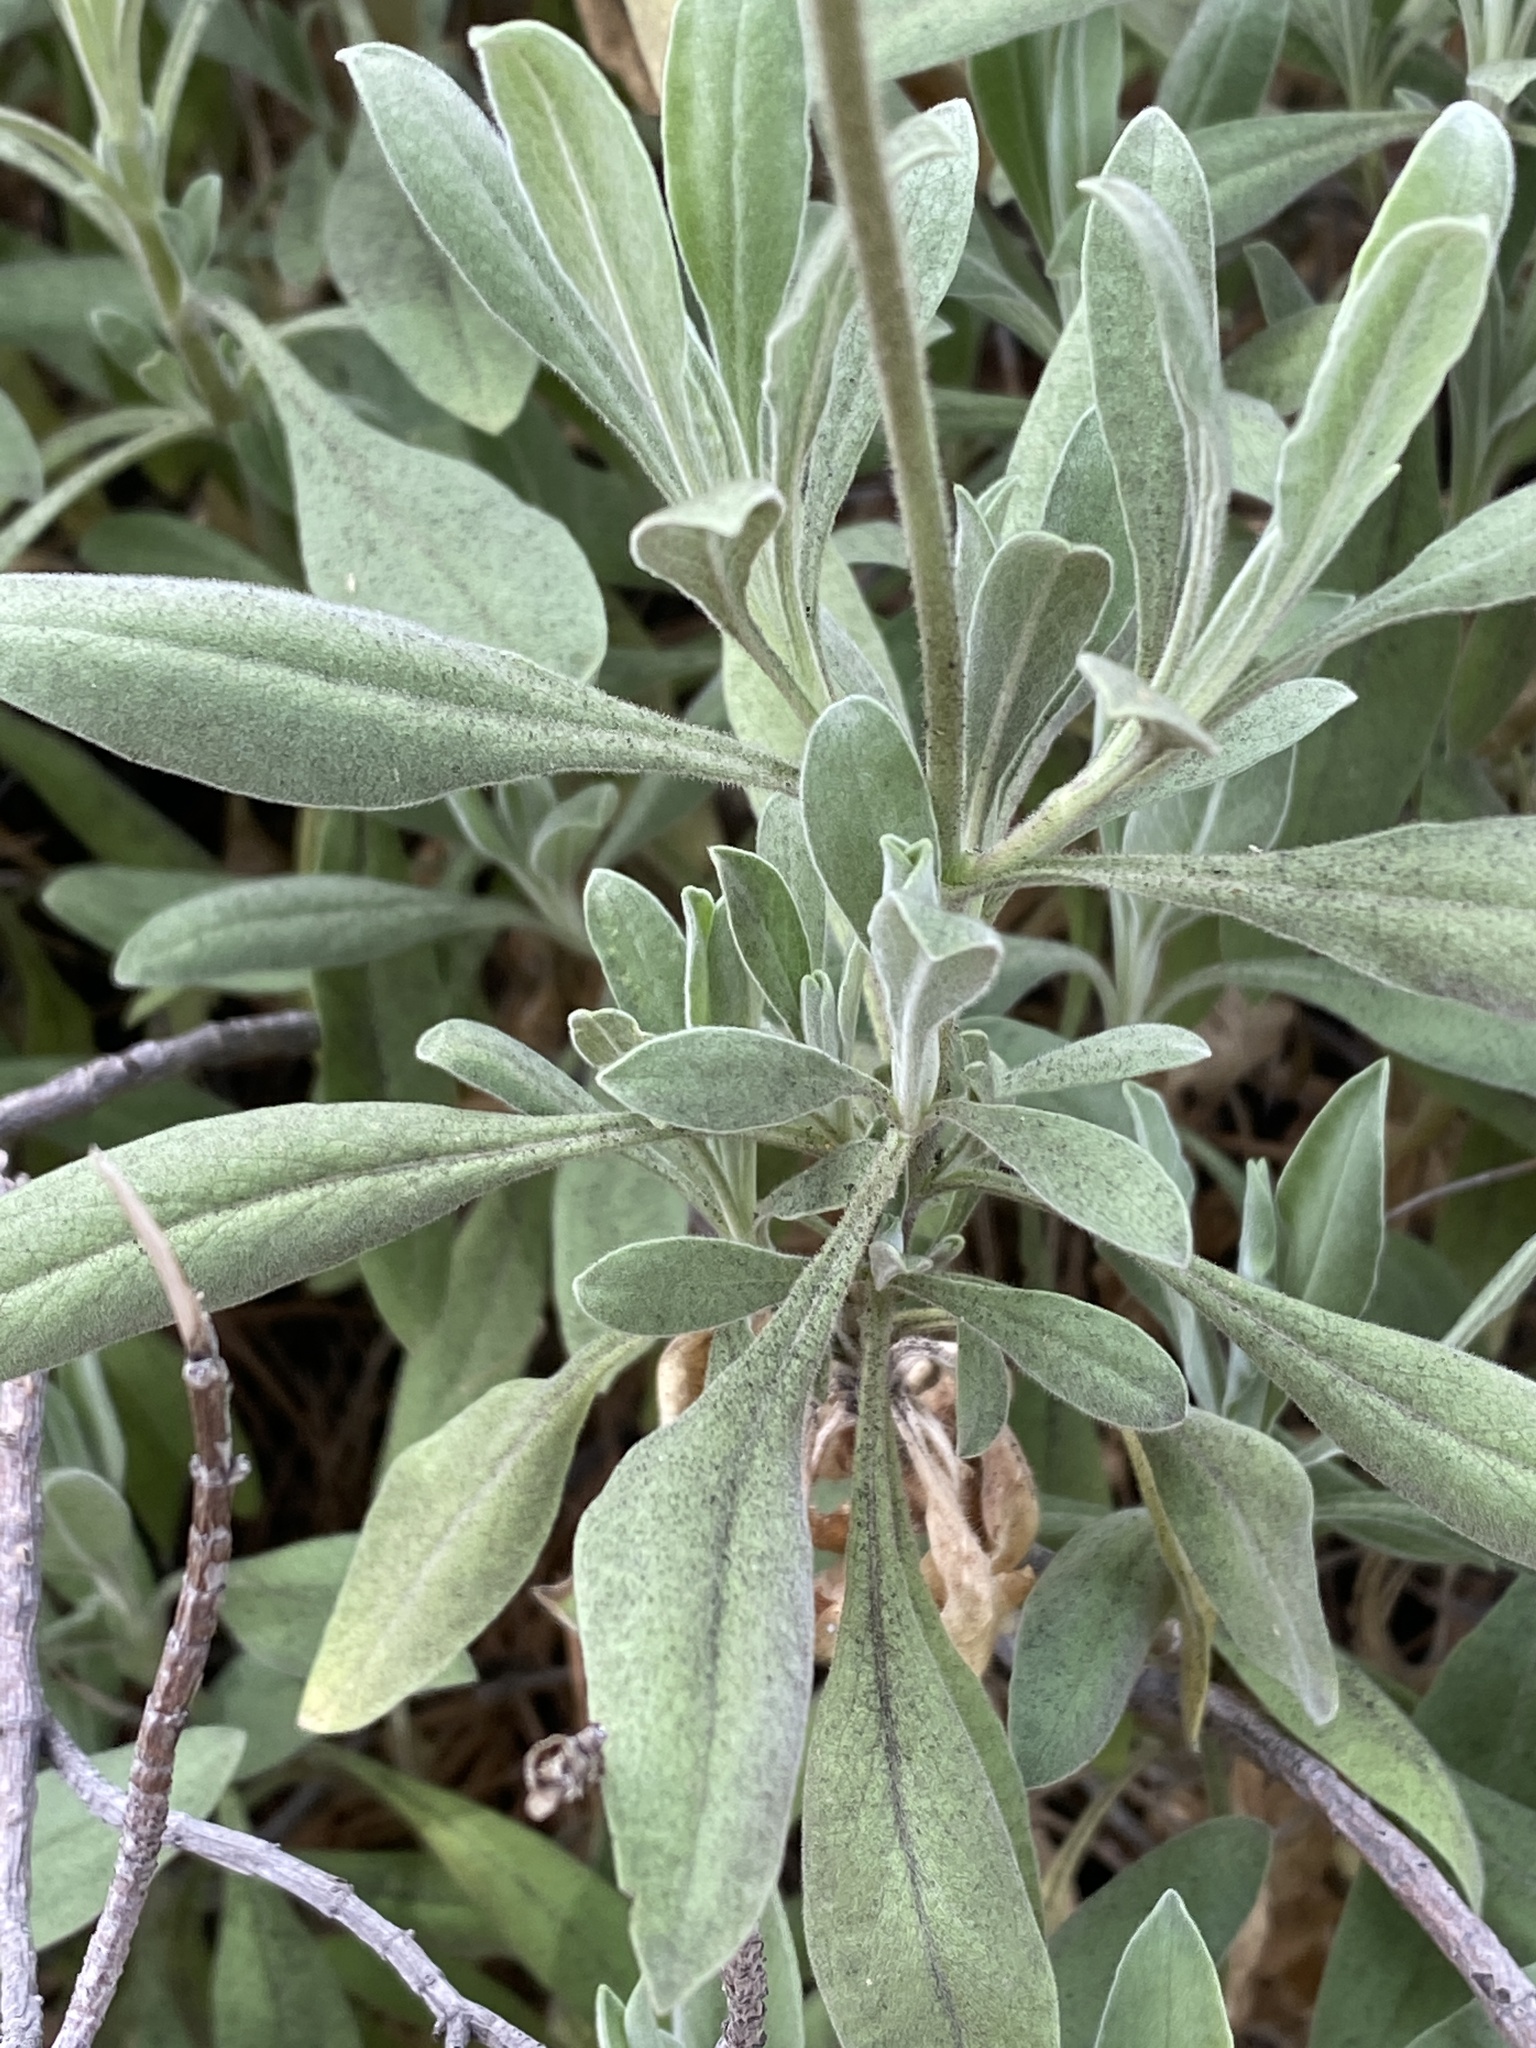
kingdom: Plantae
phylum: Tracheophyta
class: Magnoliopsida
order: Dipsacales
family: Caprifoliaceae
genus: Pterocephalus
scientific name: Pterocephalus porphyranthus
